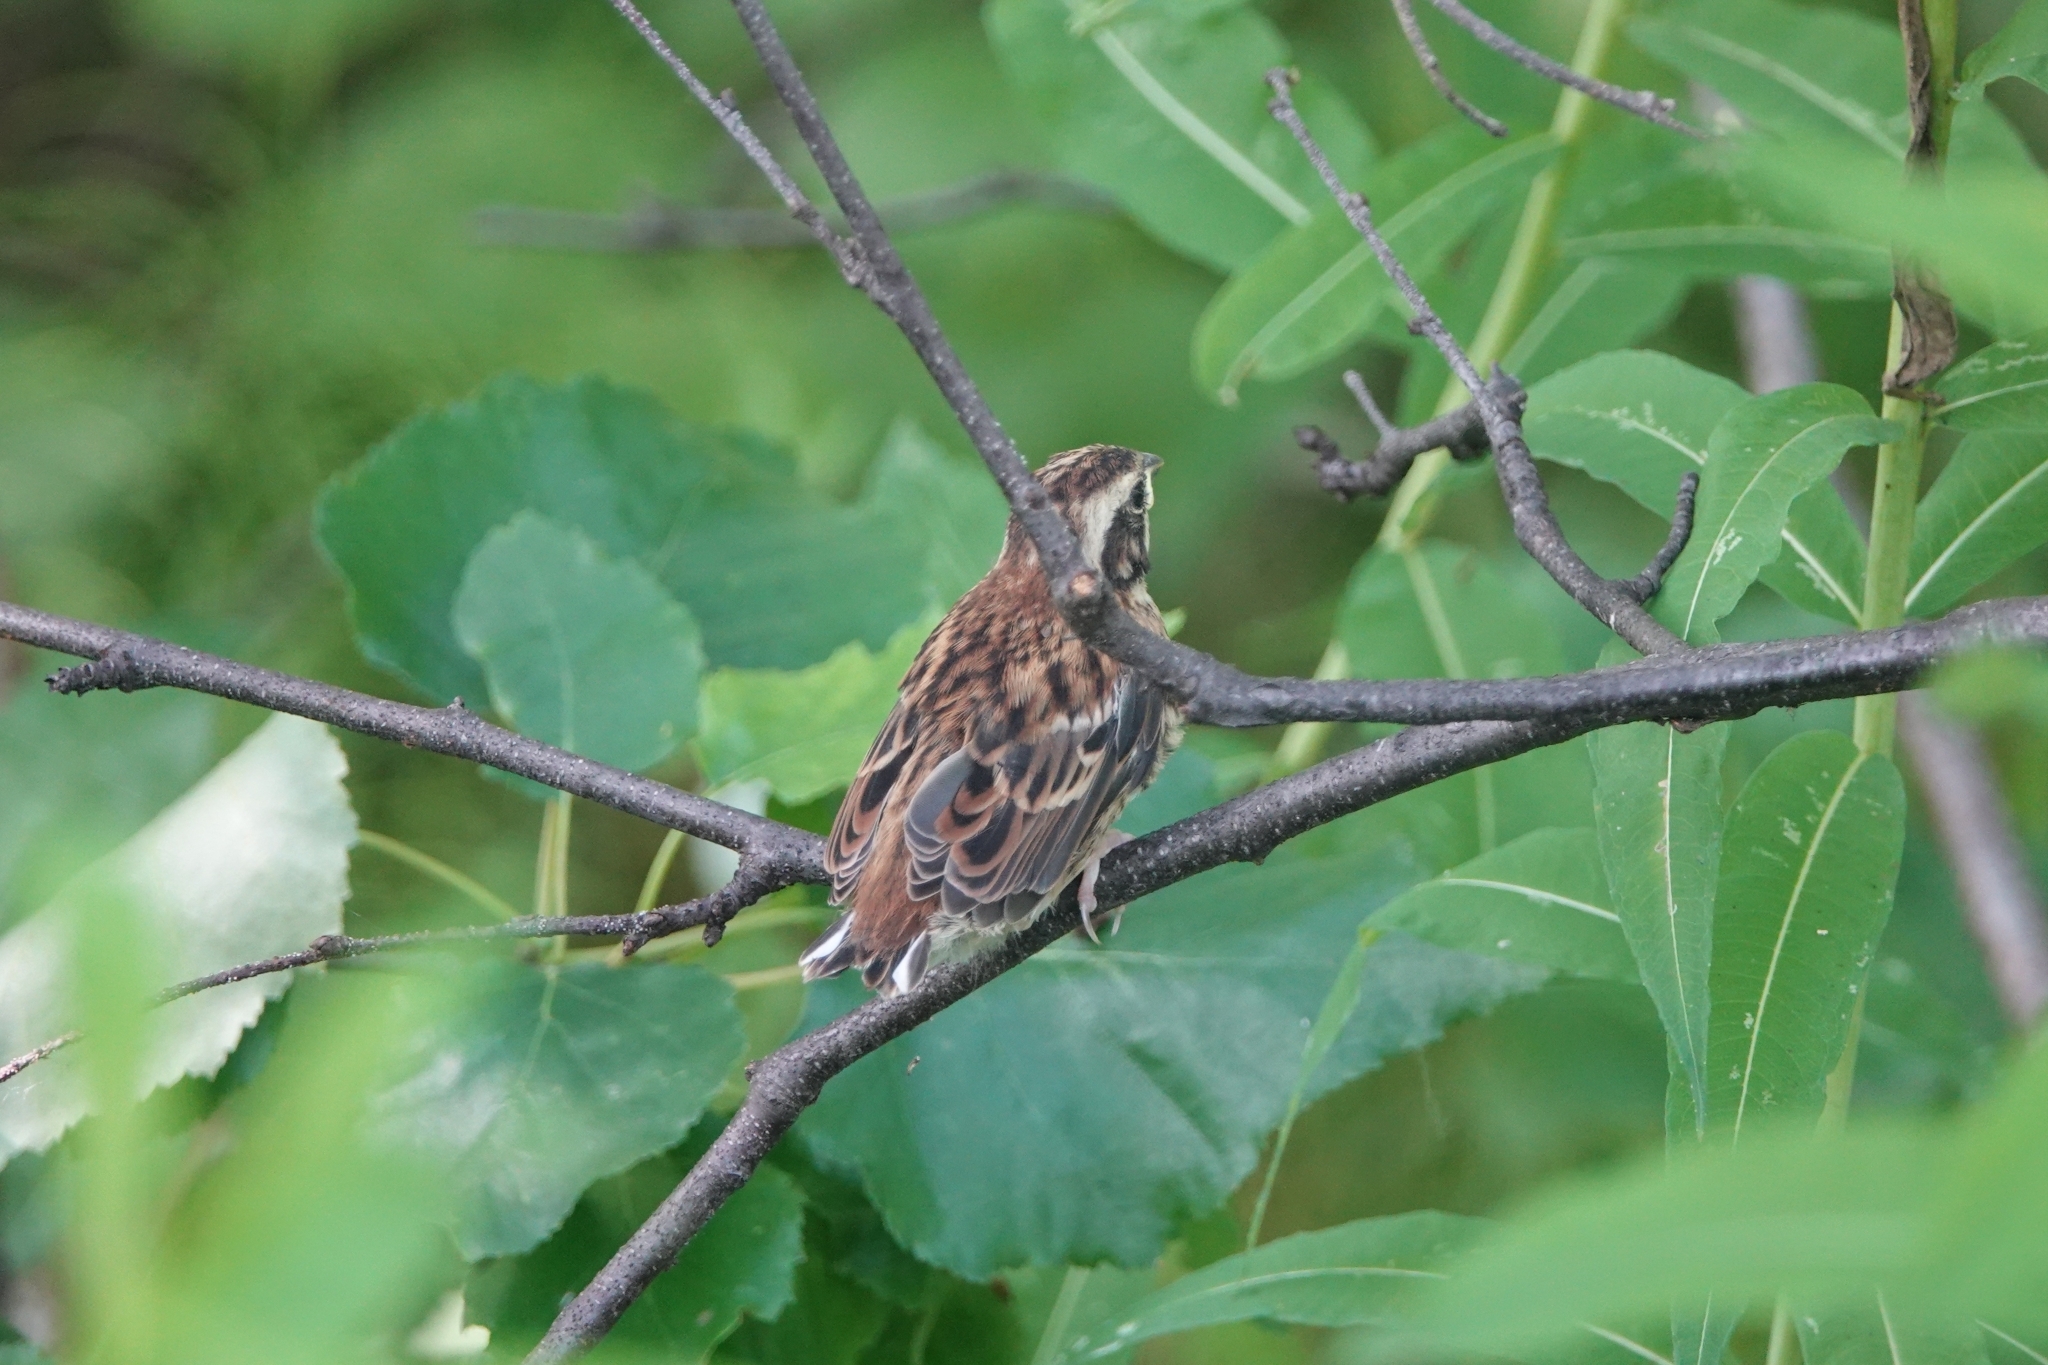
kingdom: Animalia
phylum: Chordata
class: Aves
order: Passeriformes
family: Emberizidae
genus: Emberiza
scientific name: Emberiza rustica
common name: Rustic bunting
